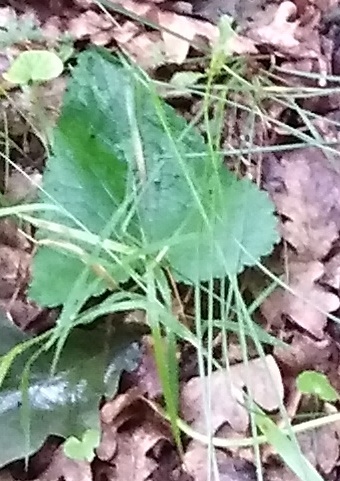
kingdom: Plantae
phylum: Tracheophyta
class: Magnoliopsida
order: Lamiales
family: Lamiaceae
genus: Phlomoides
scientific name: Phlomoides tuberosa
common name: Tuberous jerusalem sage
